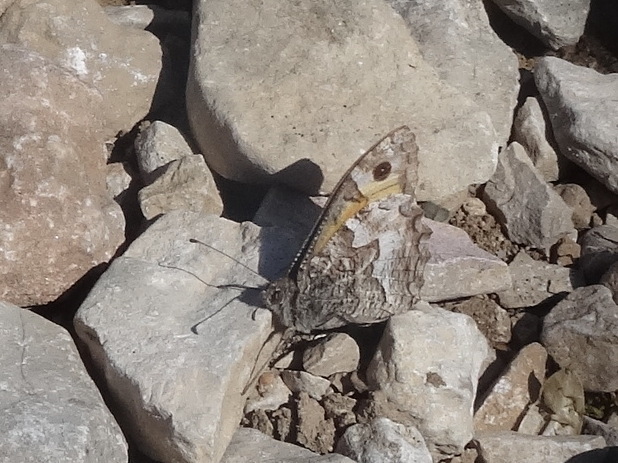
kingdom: Animalia
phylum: Arthropoda
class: Insecta
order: Lepidoptera
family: Nymphalidae
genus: Hipparchia
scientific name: Hipparchia semele
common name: Grayling
